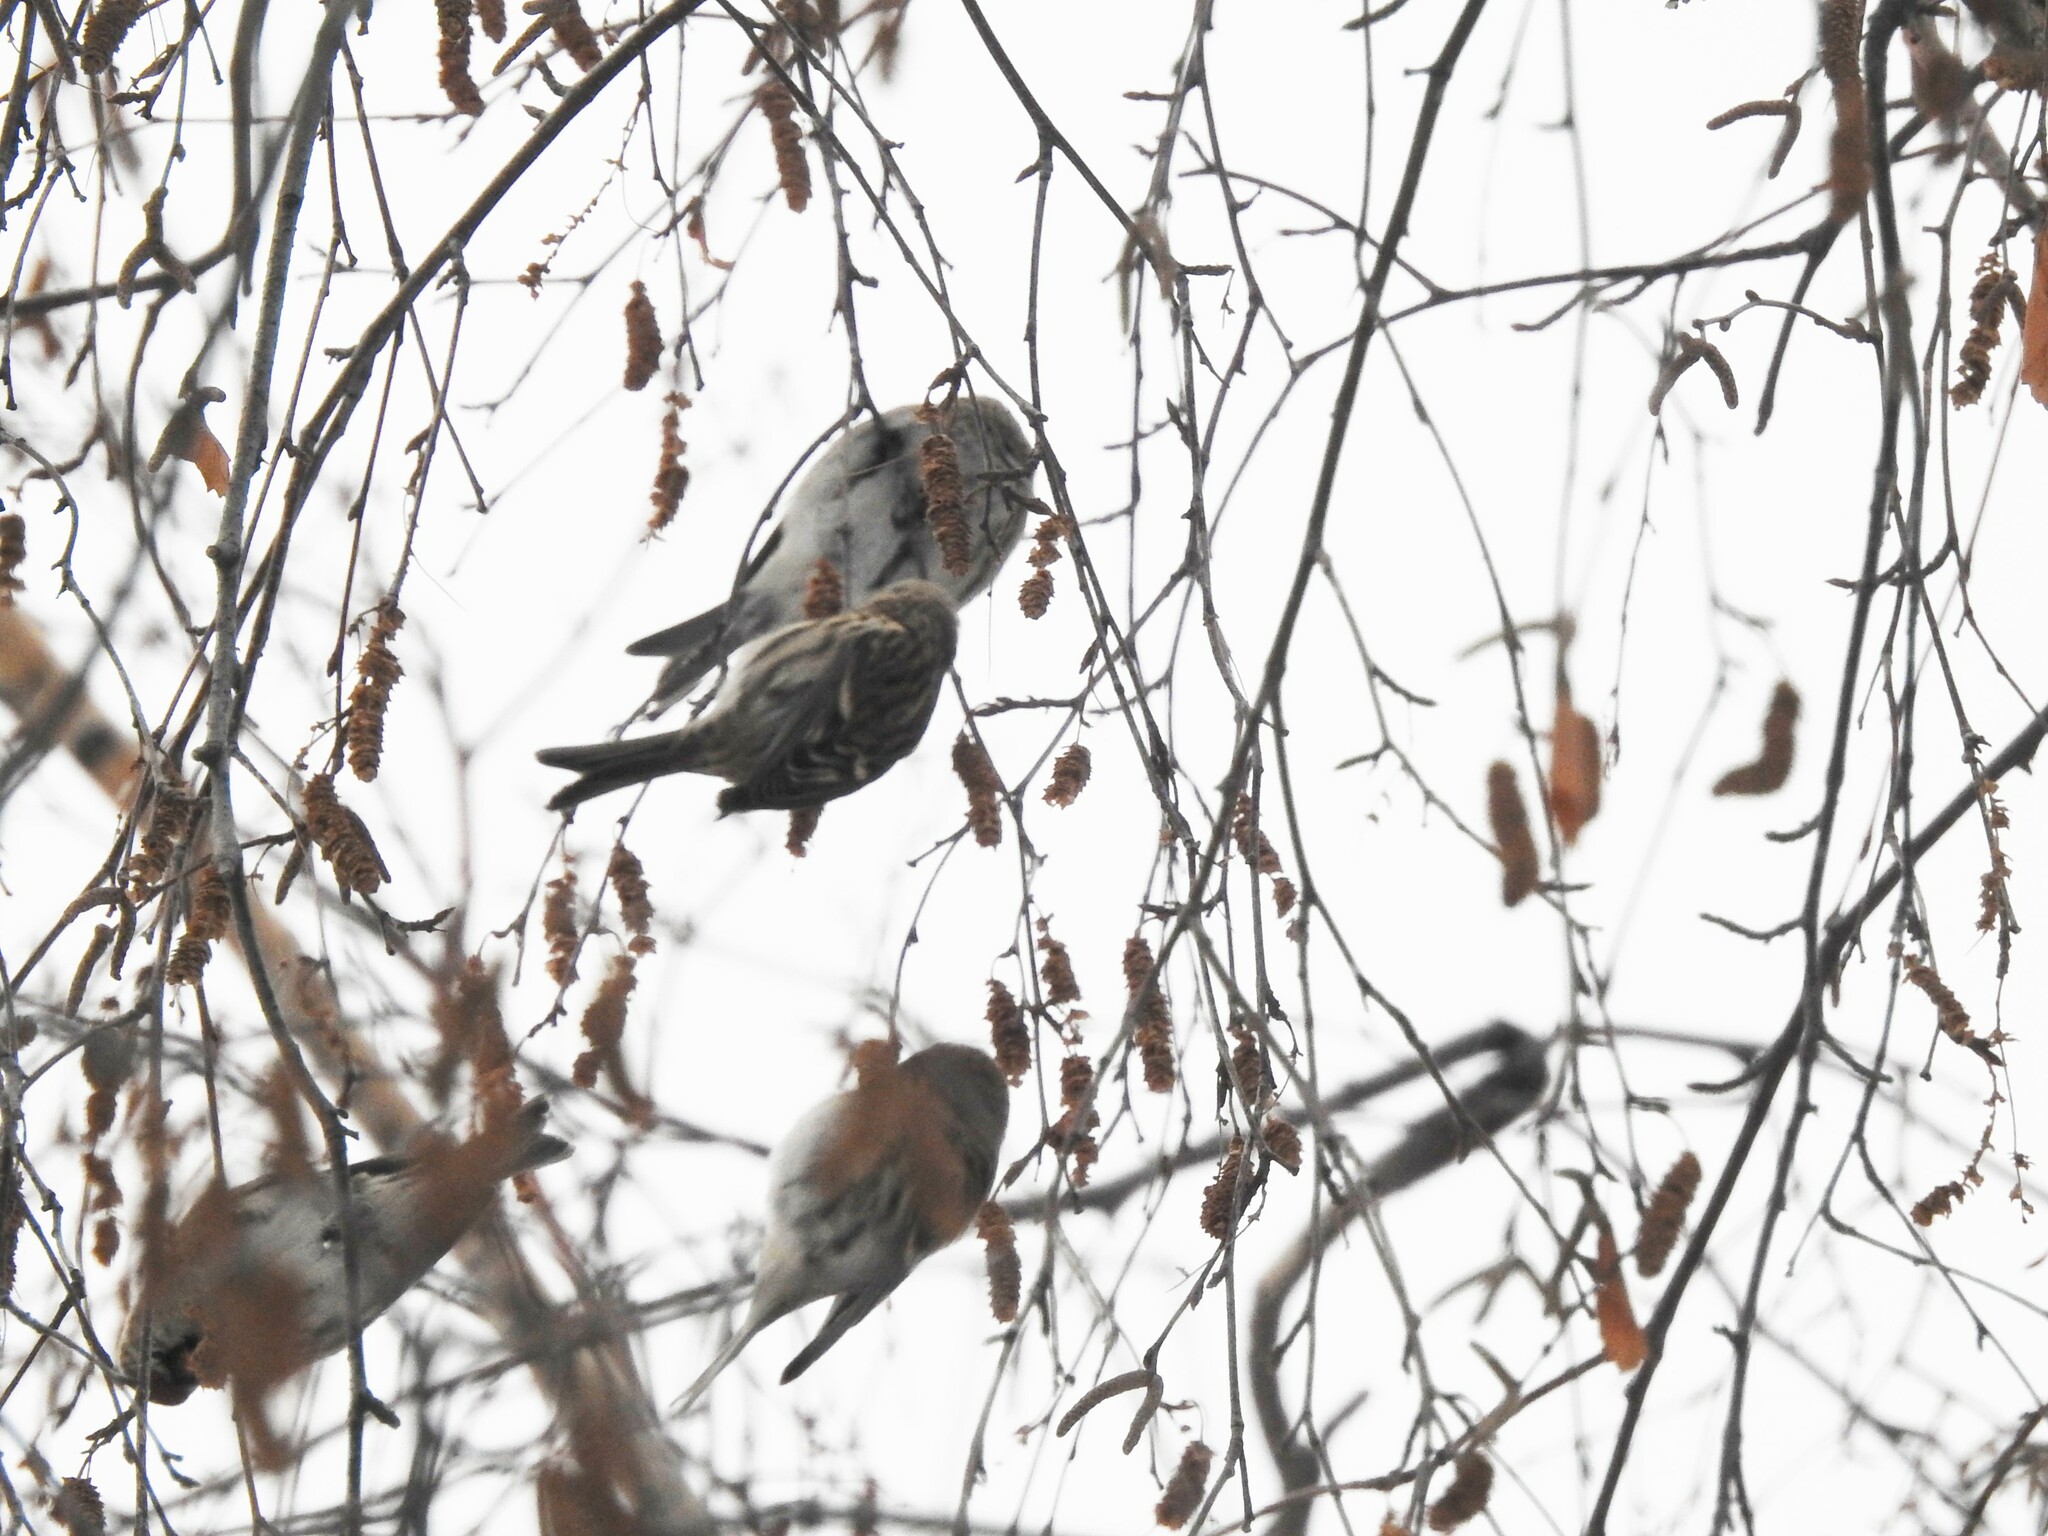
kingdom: Animalia
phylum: Chordata
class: Aves
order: Passeriformes
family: Fringillidae
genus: Acanthis
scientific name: Acanthis flammea
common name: Common redpoll
